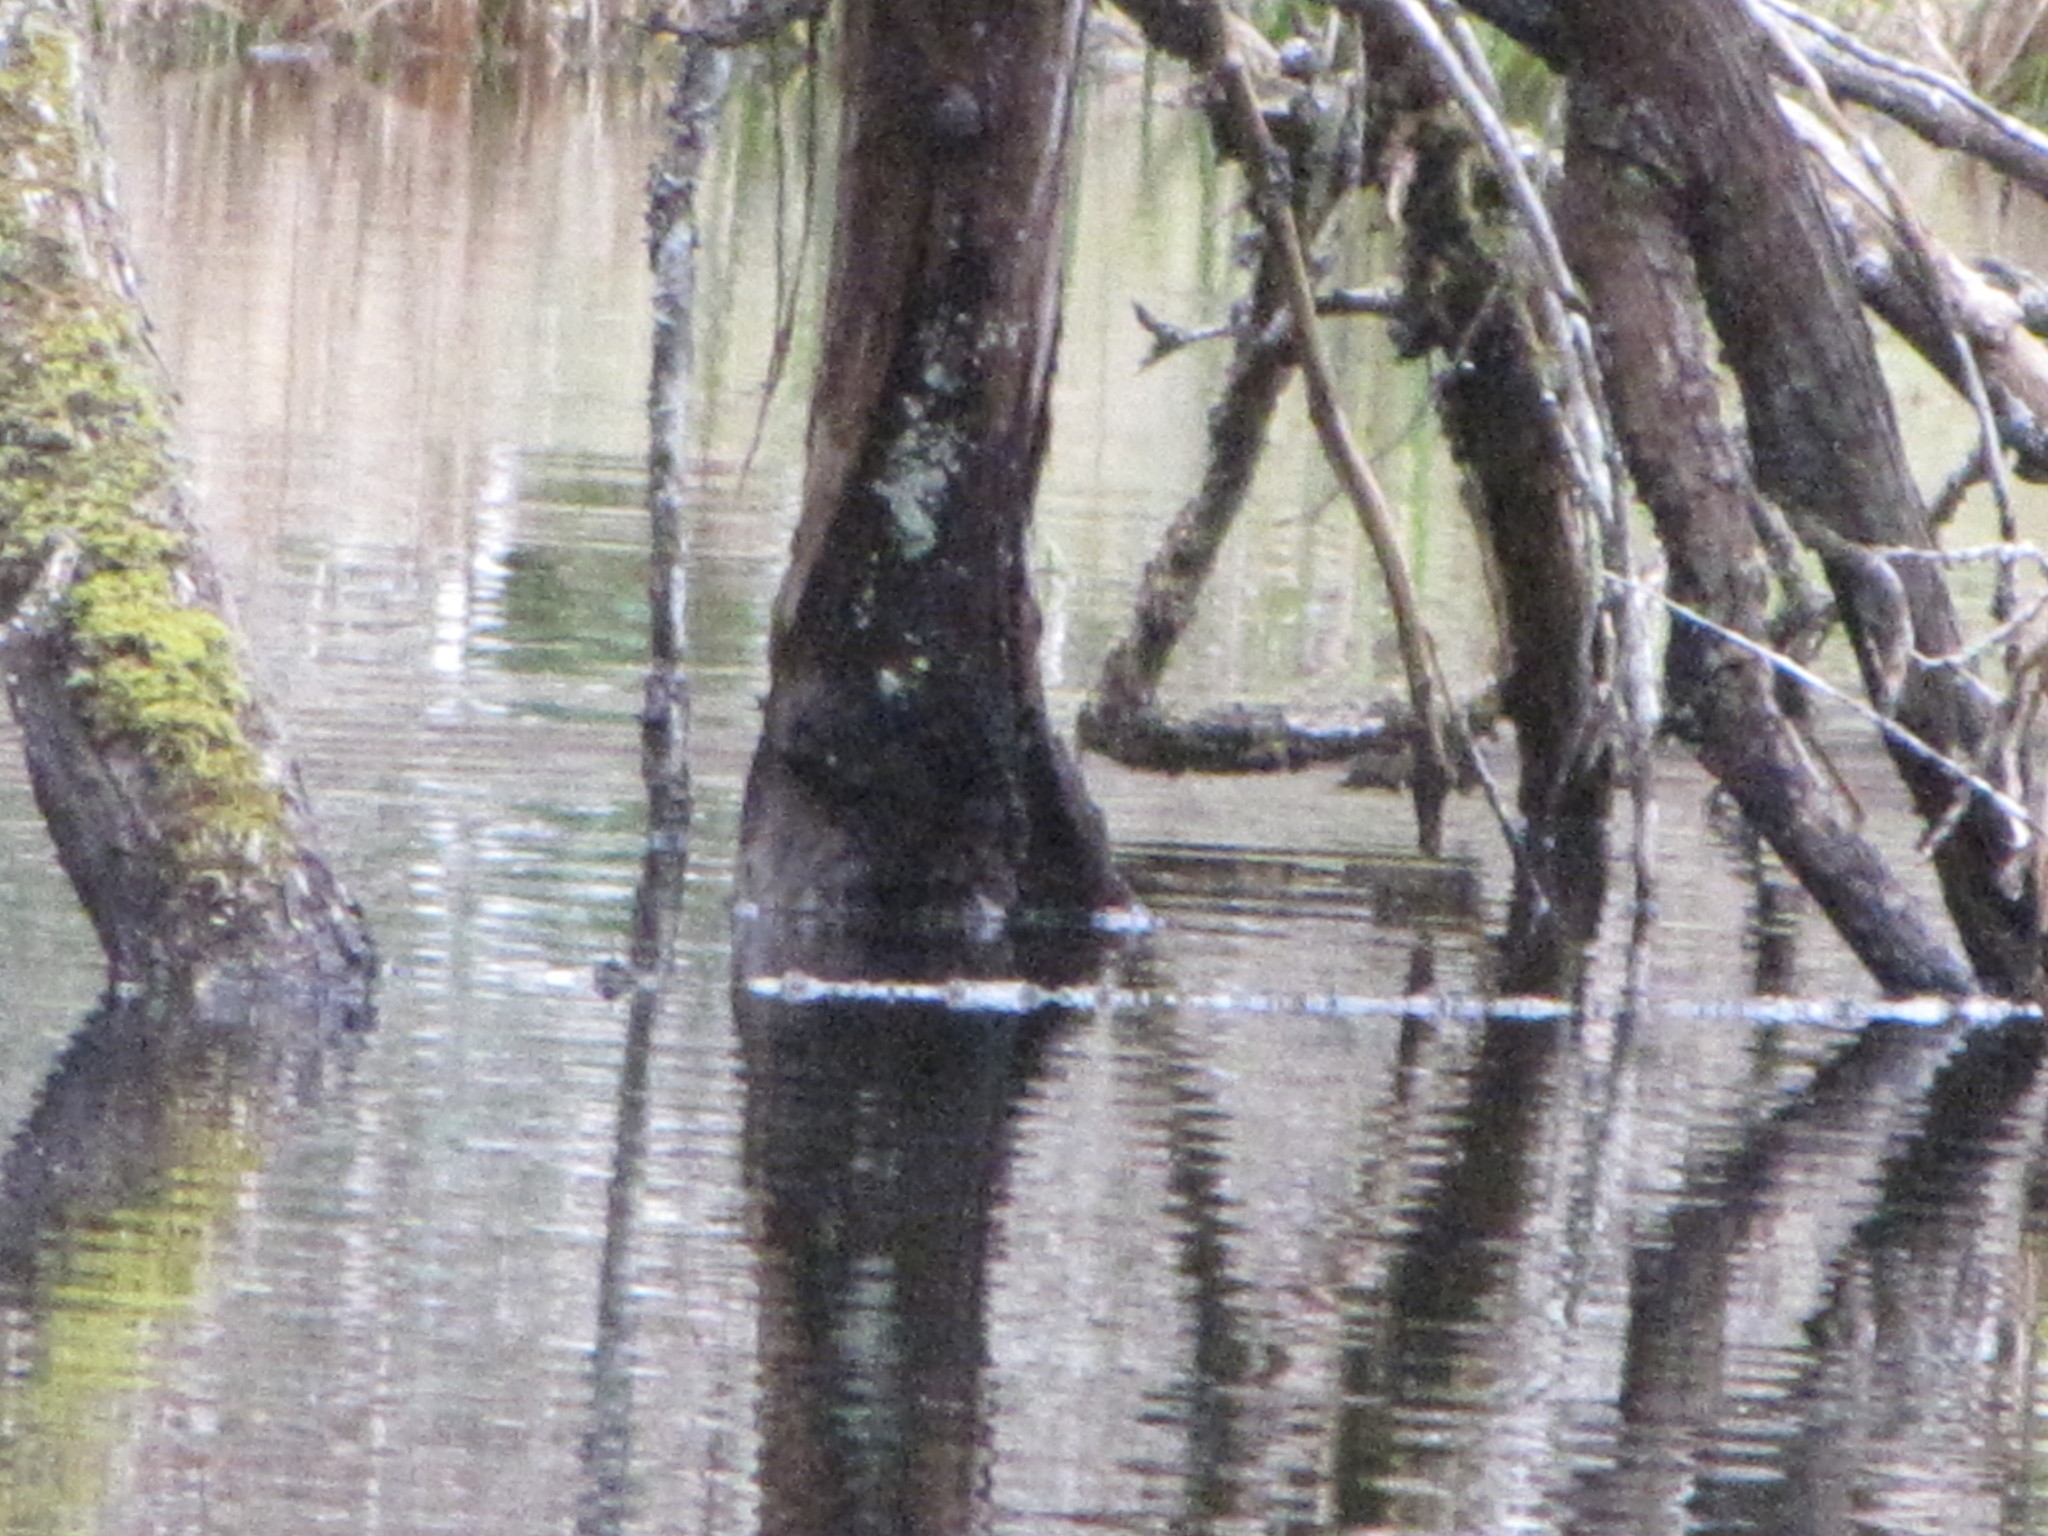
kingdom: Animalia
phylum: Chordata
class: Aves
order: Anseriformes
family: Anatidae
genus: Anas
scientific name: Anas platyrhynchos
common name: Mallard
